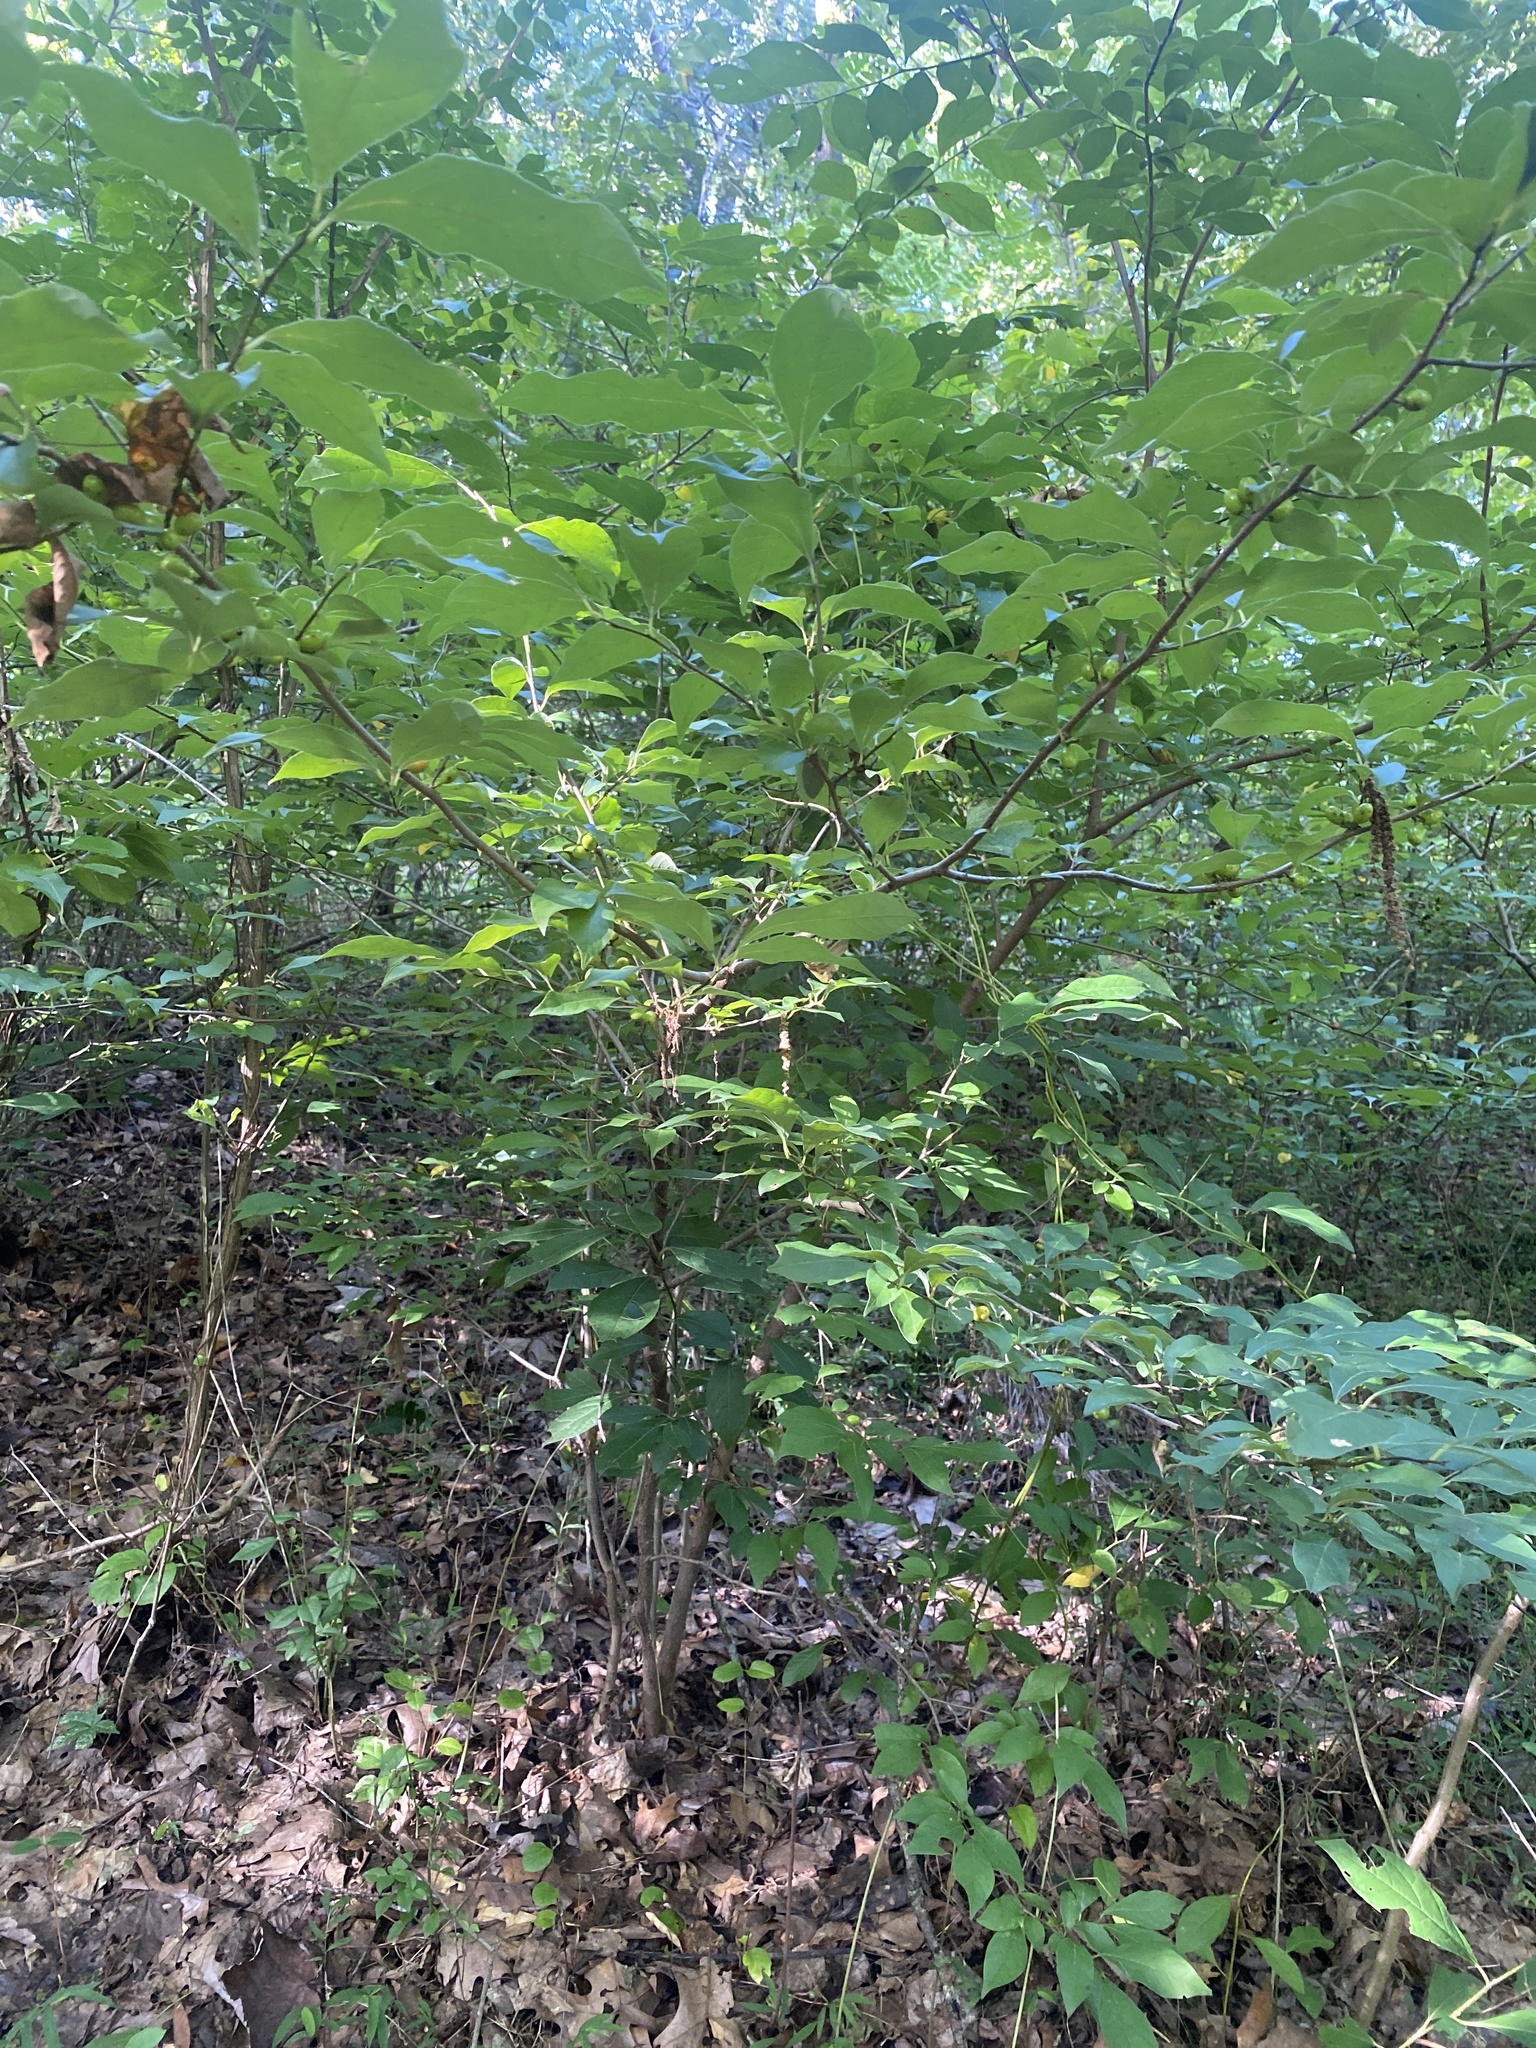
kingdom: Plantae
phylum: Tracheophyta
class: Magnoliopsida
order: Laurales
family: Lauraceae
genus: Lindera
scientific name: Lindera benzoin
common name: Spicebush
